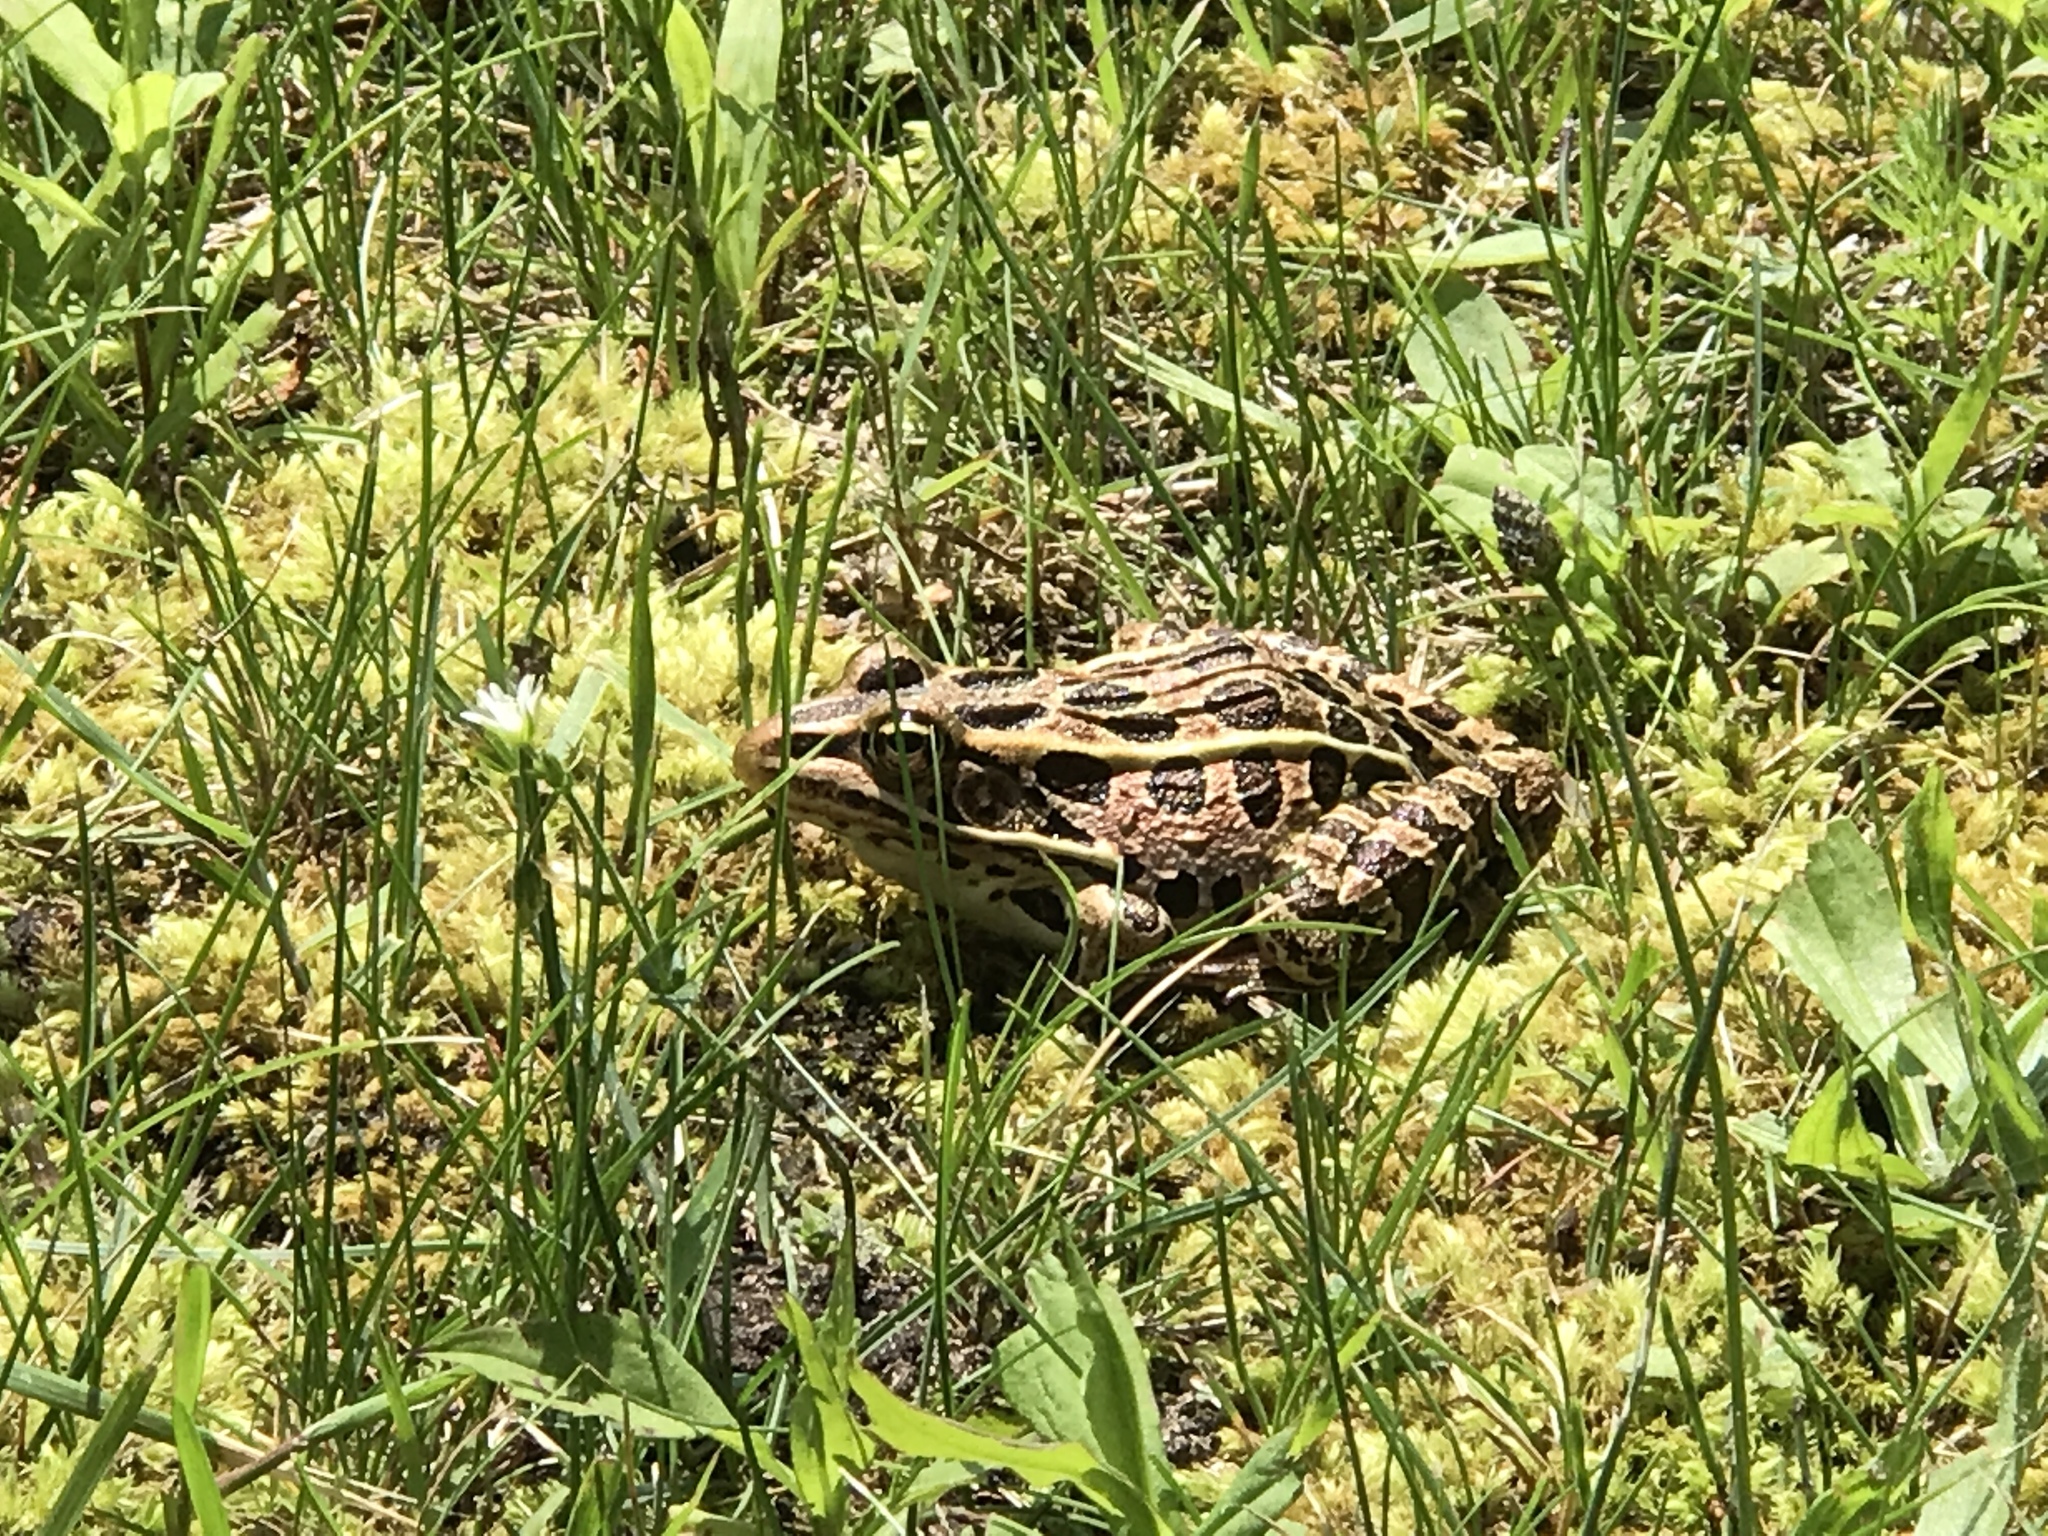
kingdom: Animalia
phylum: Chordata
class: Amphibia
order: Anura
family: Ranidae
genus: Lithobates
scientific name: Lithobates pipiens
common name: Northern leopard frog
